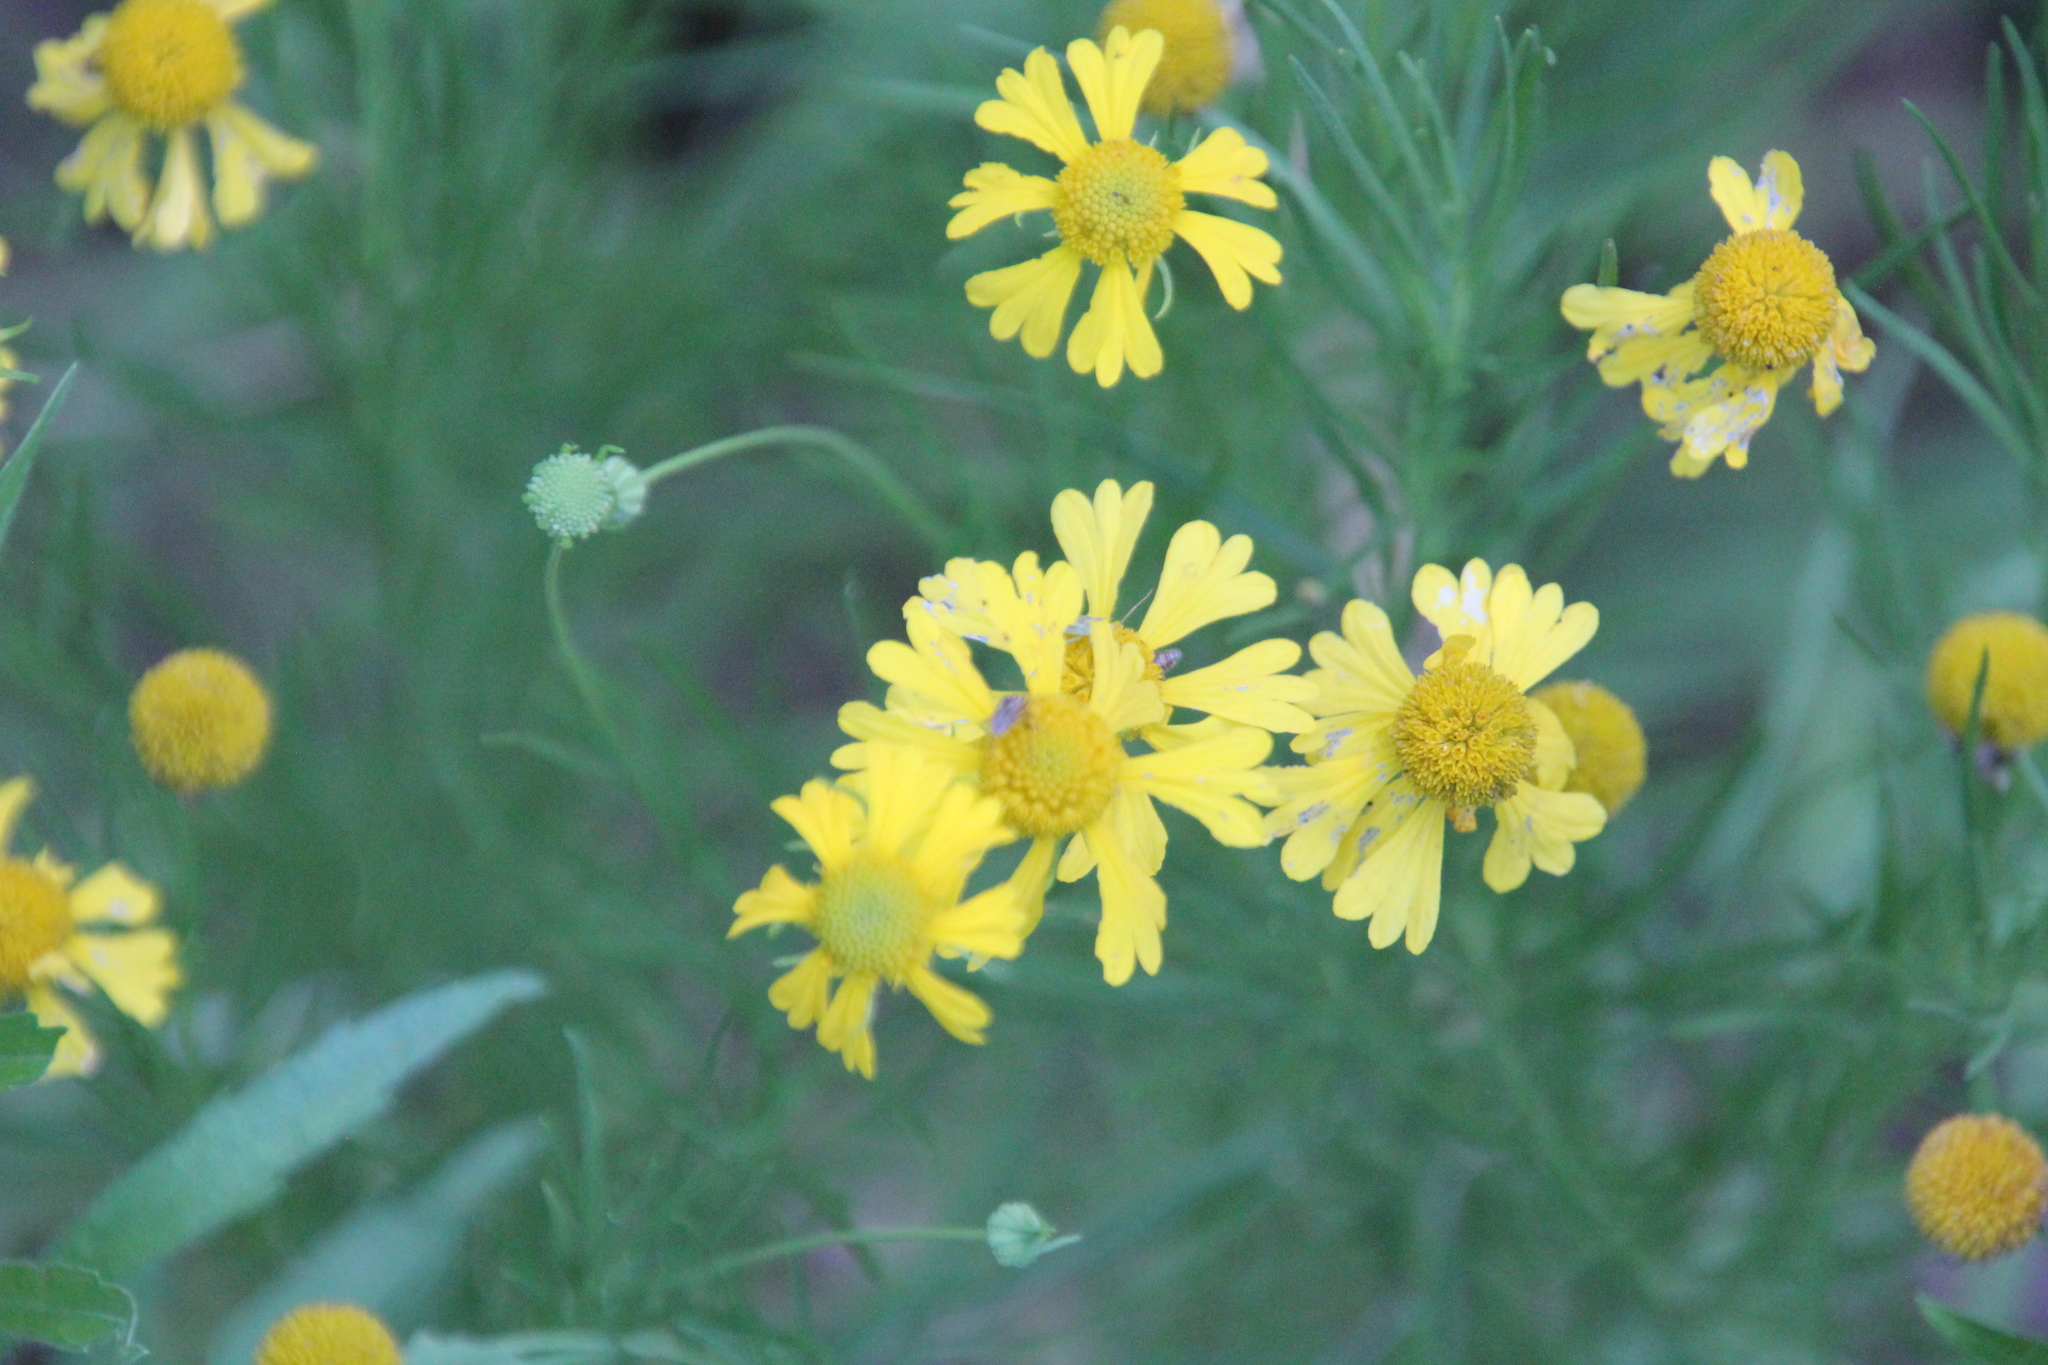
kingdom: Plantae
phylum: Tracheophyta
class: Magnoliopsida
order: Asterales
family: Asteraceae
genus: Helenium
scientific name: Helenium amarum
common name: Bitter sneezeweed
